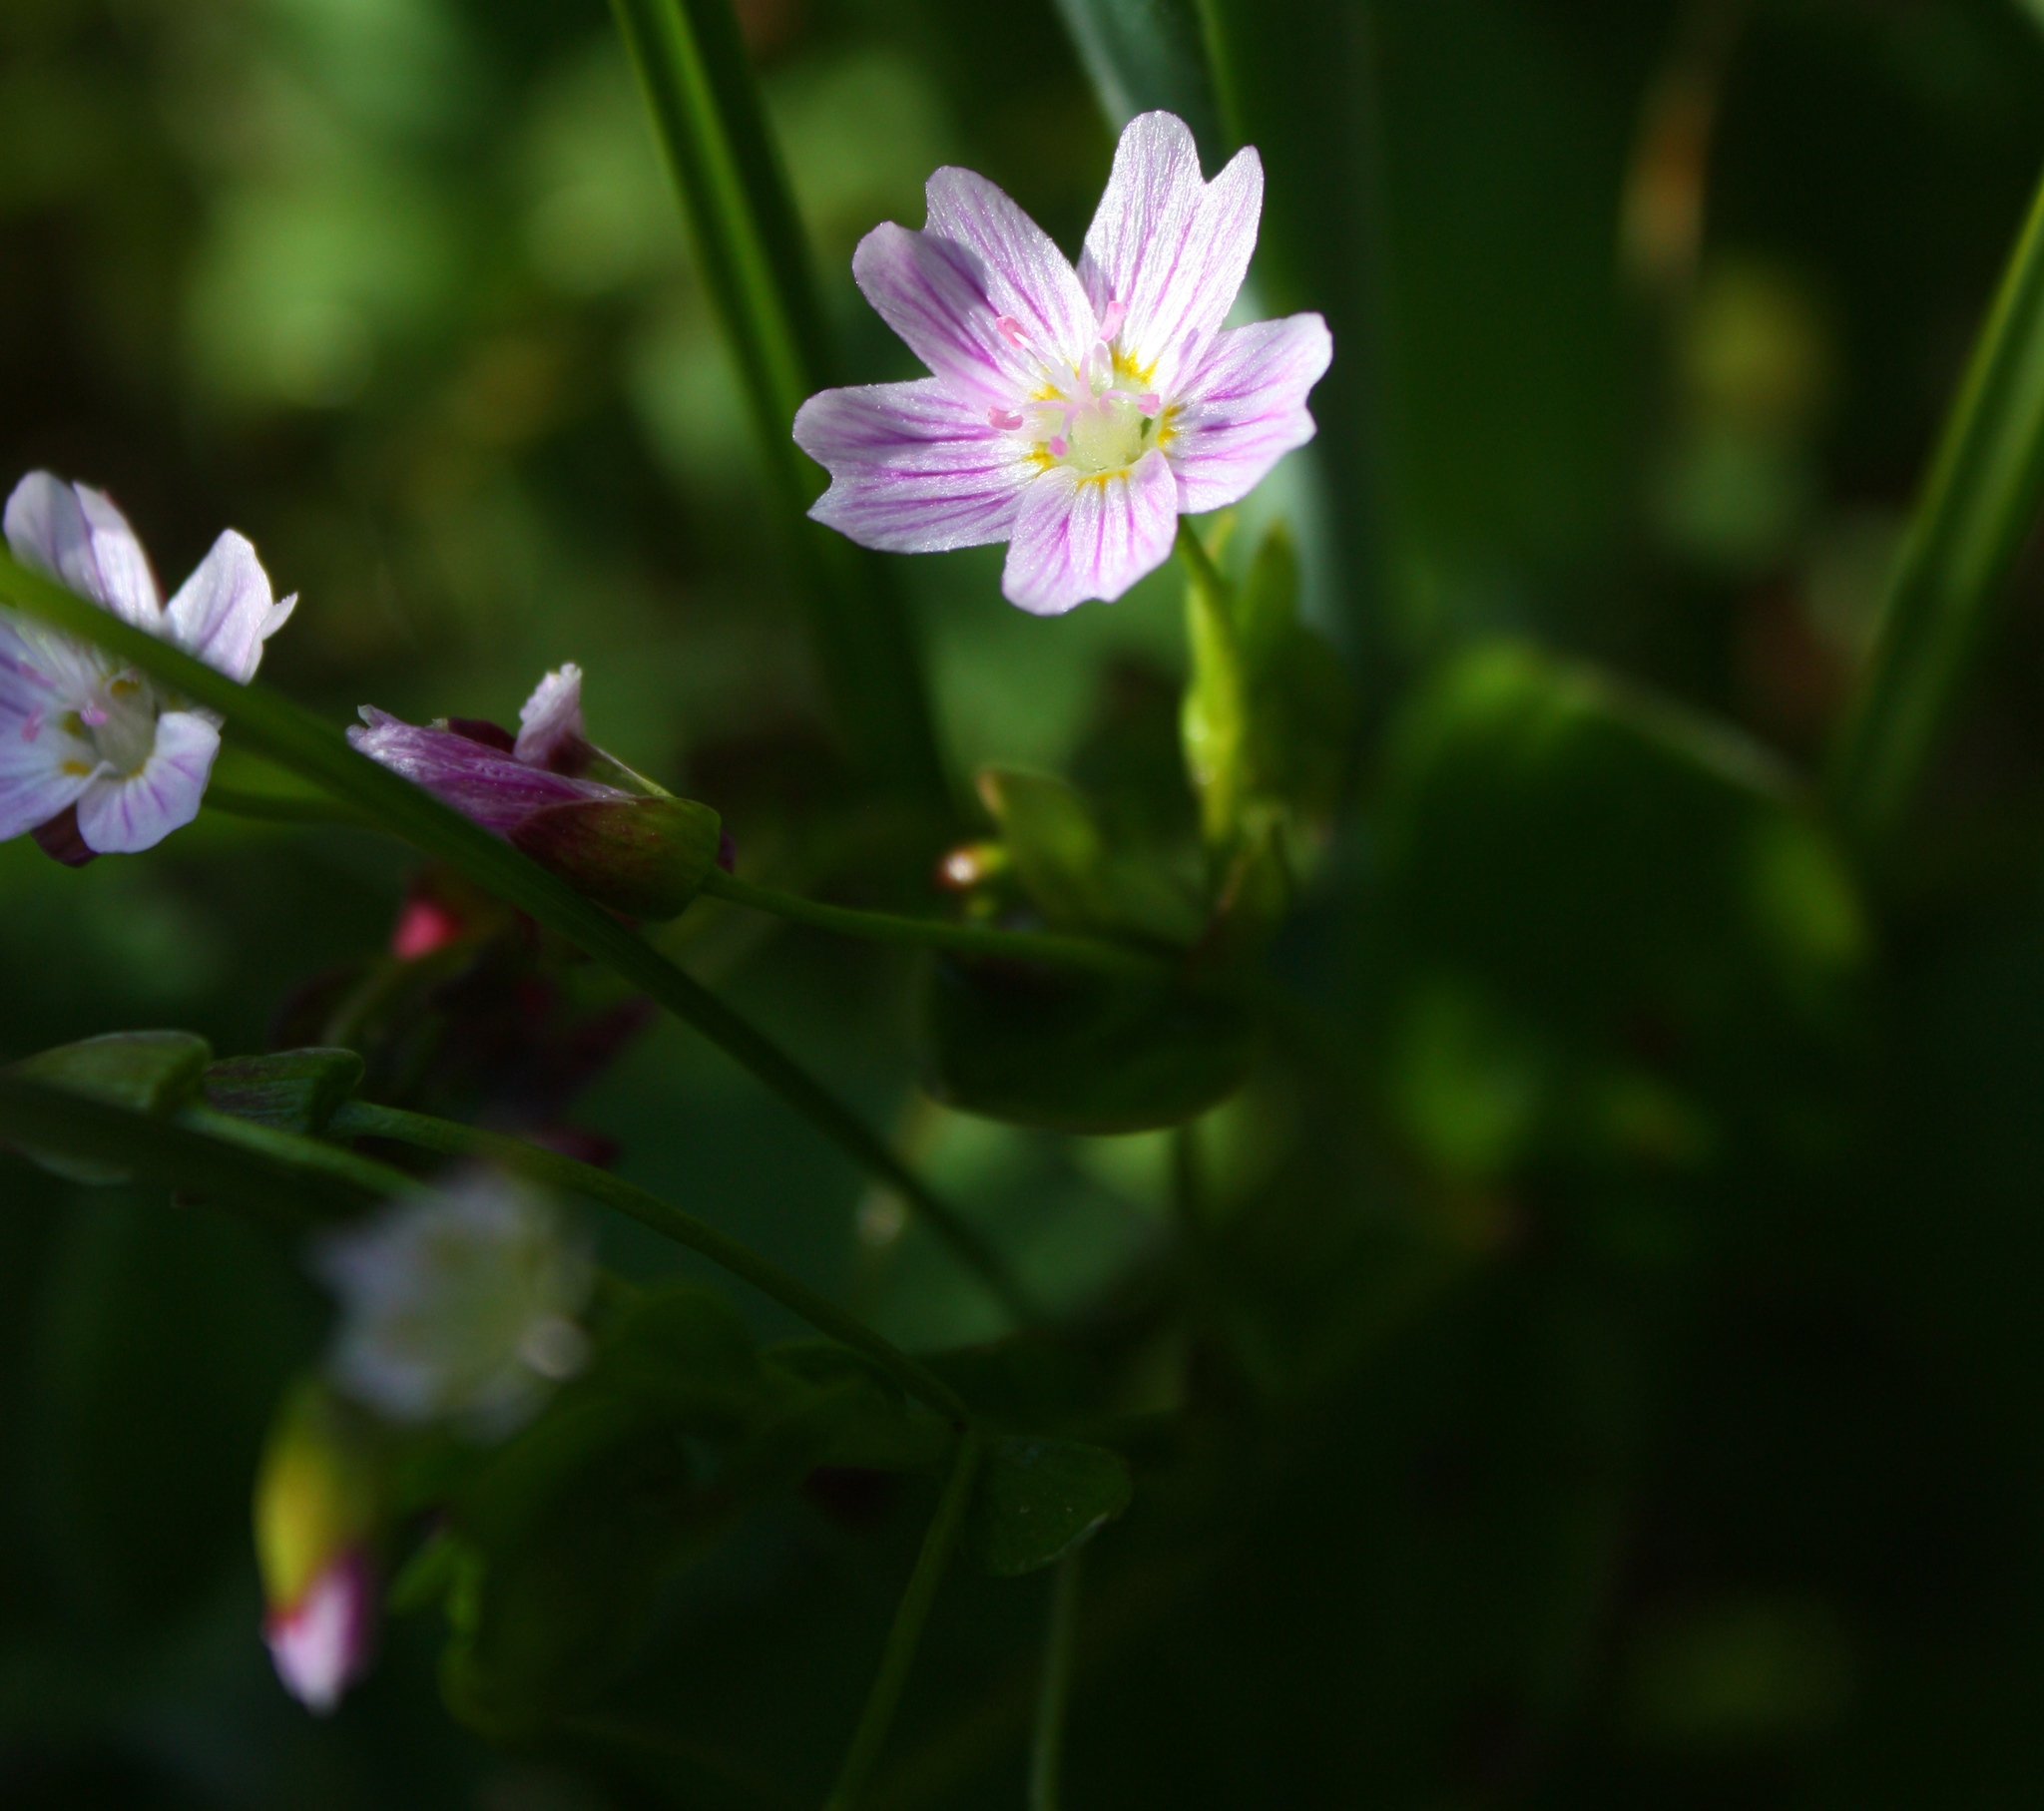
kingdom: Plantae
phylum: Tracheophyta
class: Magnoliopsida
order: Caryophyllales
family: Montiaceae
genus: Claytonia
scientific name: Claytonia sibirica
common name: Pink purslane
